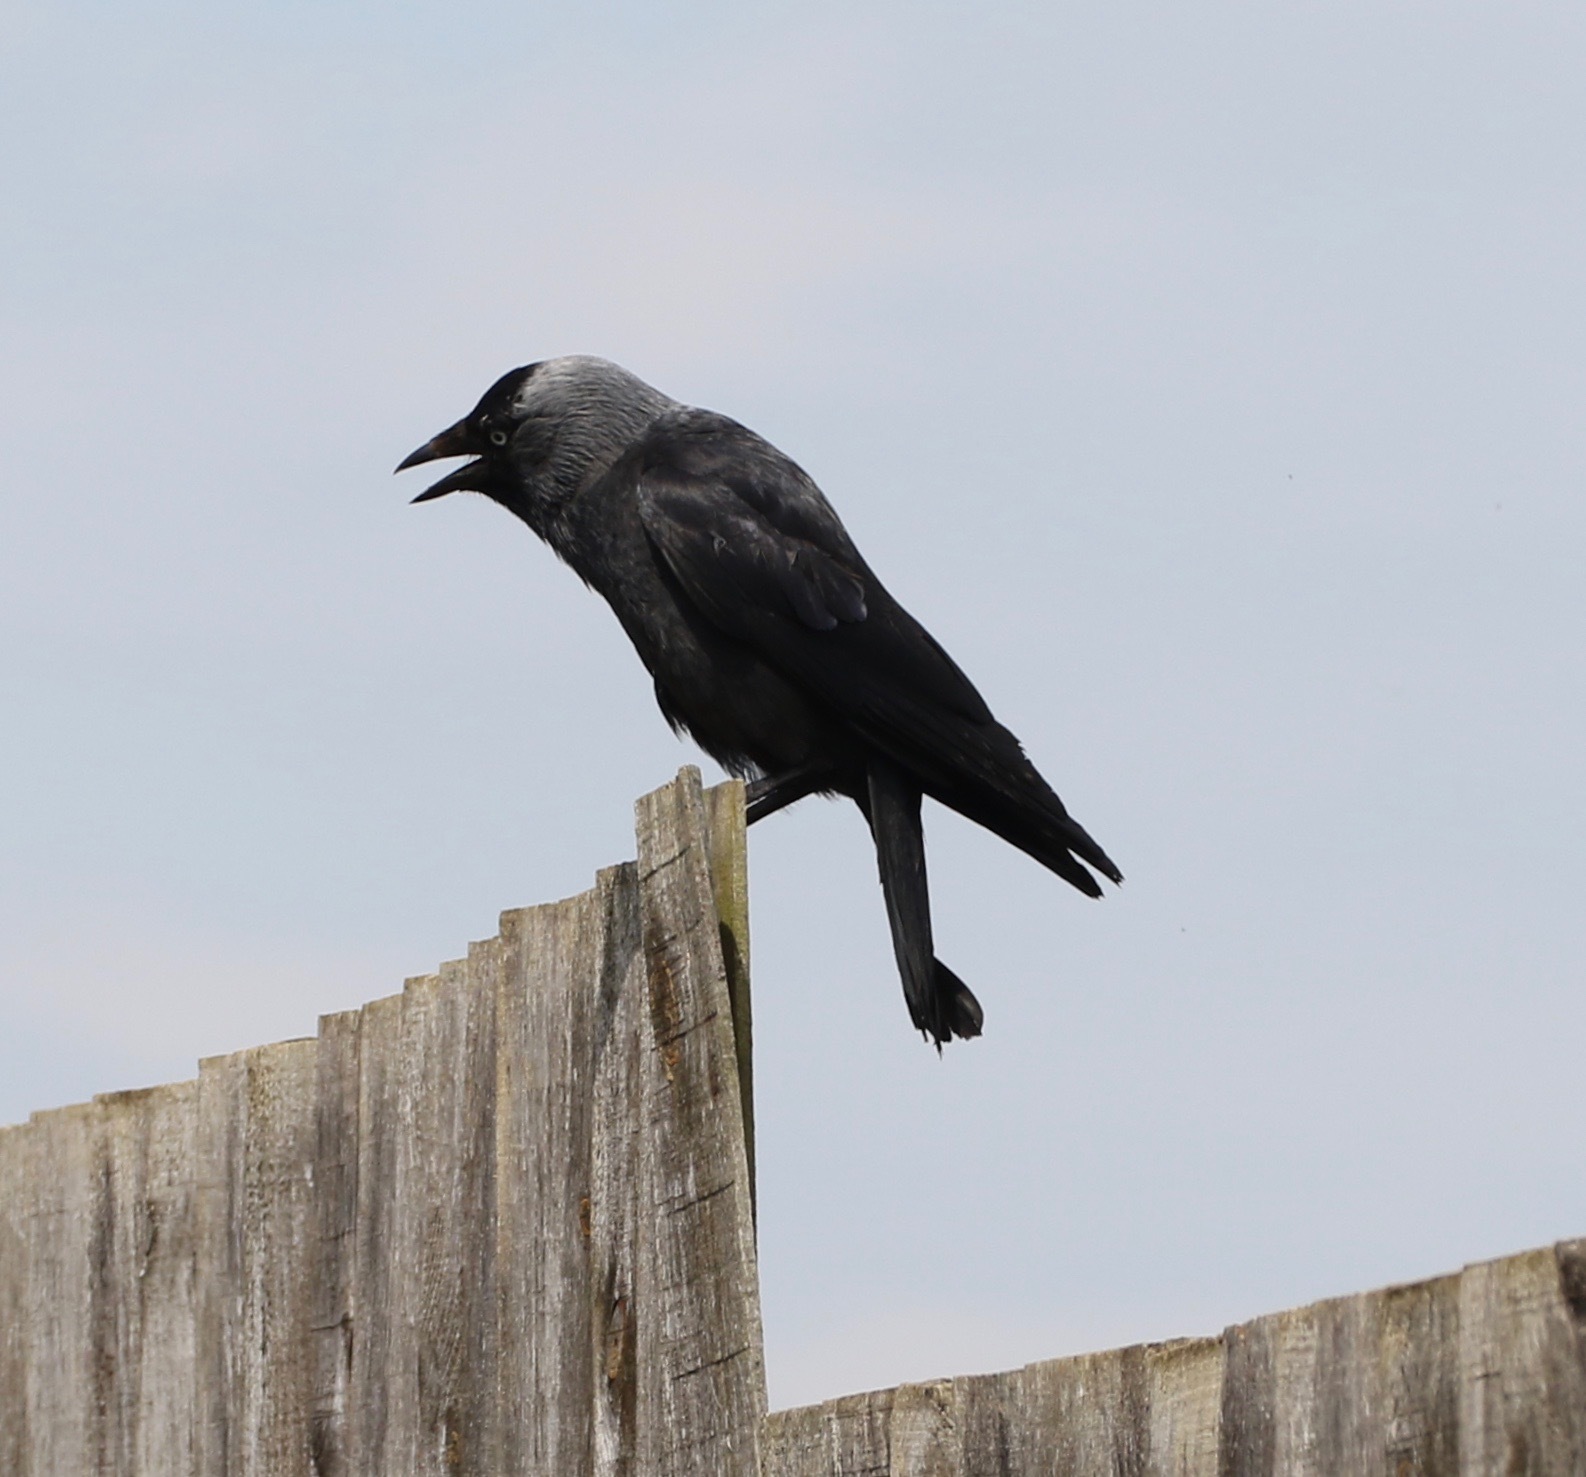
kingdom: Animalia
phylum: Chordata
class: Aves
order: Passeriformes
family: Corvidae
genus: Coloeus
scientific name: Coloeus monedula
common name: Western jackdaw
